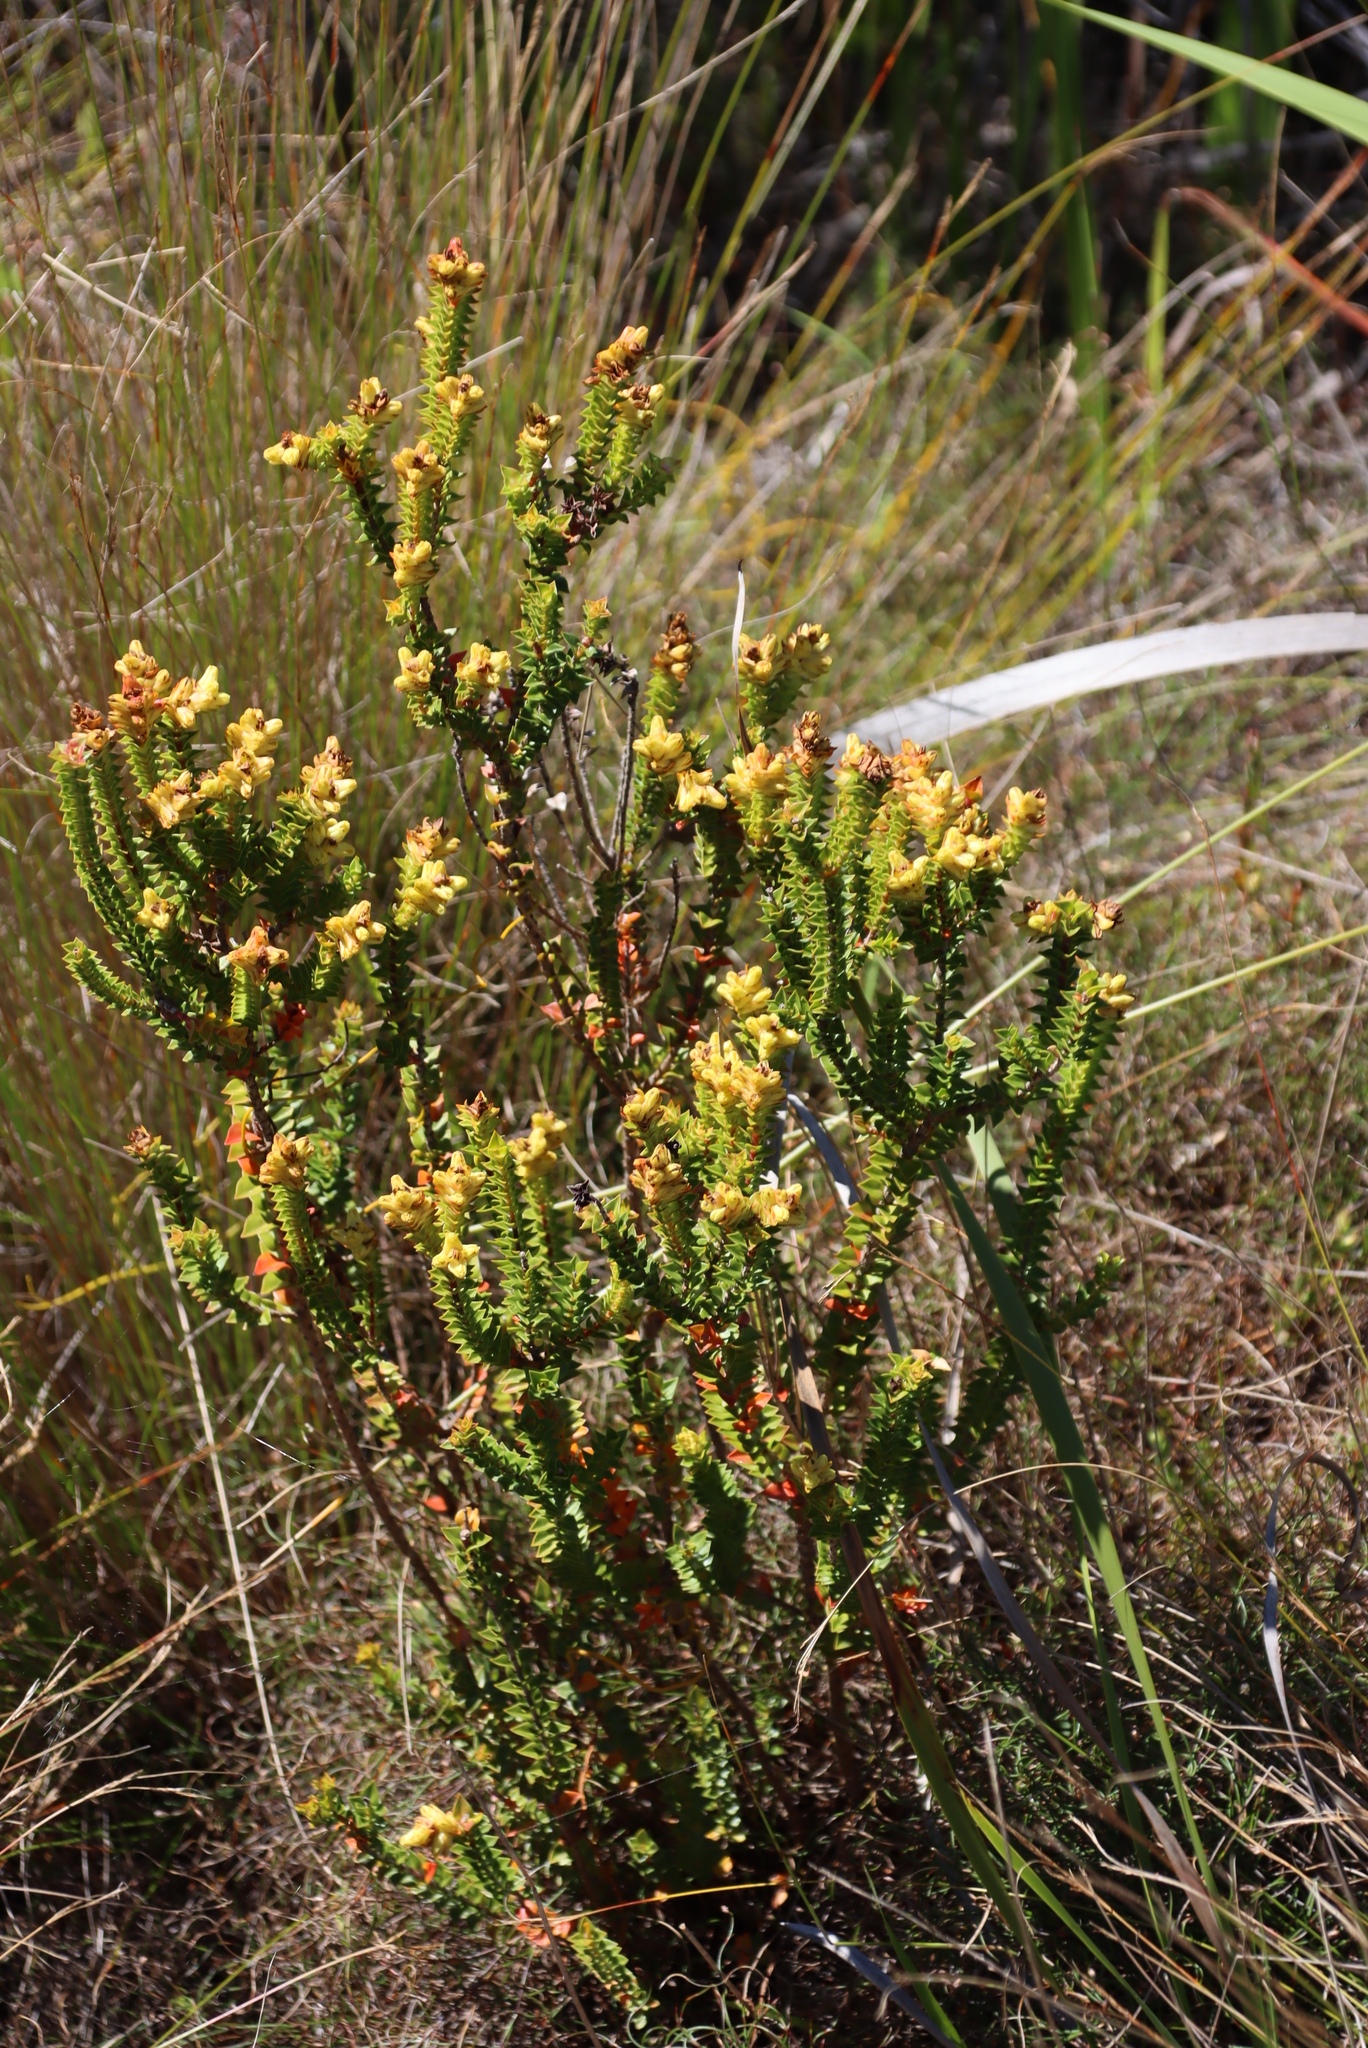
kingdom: Plantae
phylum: Tracheophyta
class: Magnoliopsida
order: Myrtales
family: Penaeaceae
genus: Penaea
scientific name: Penaea mucronata
